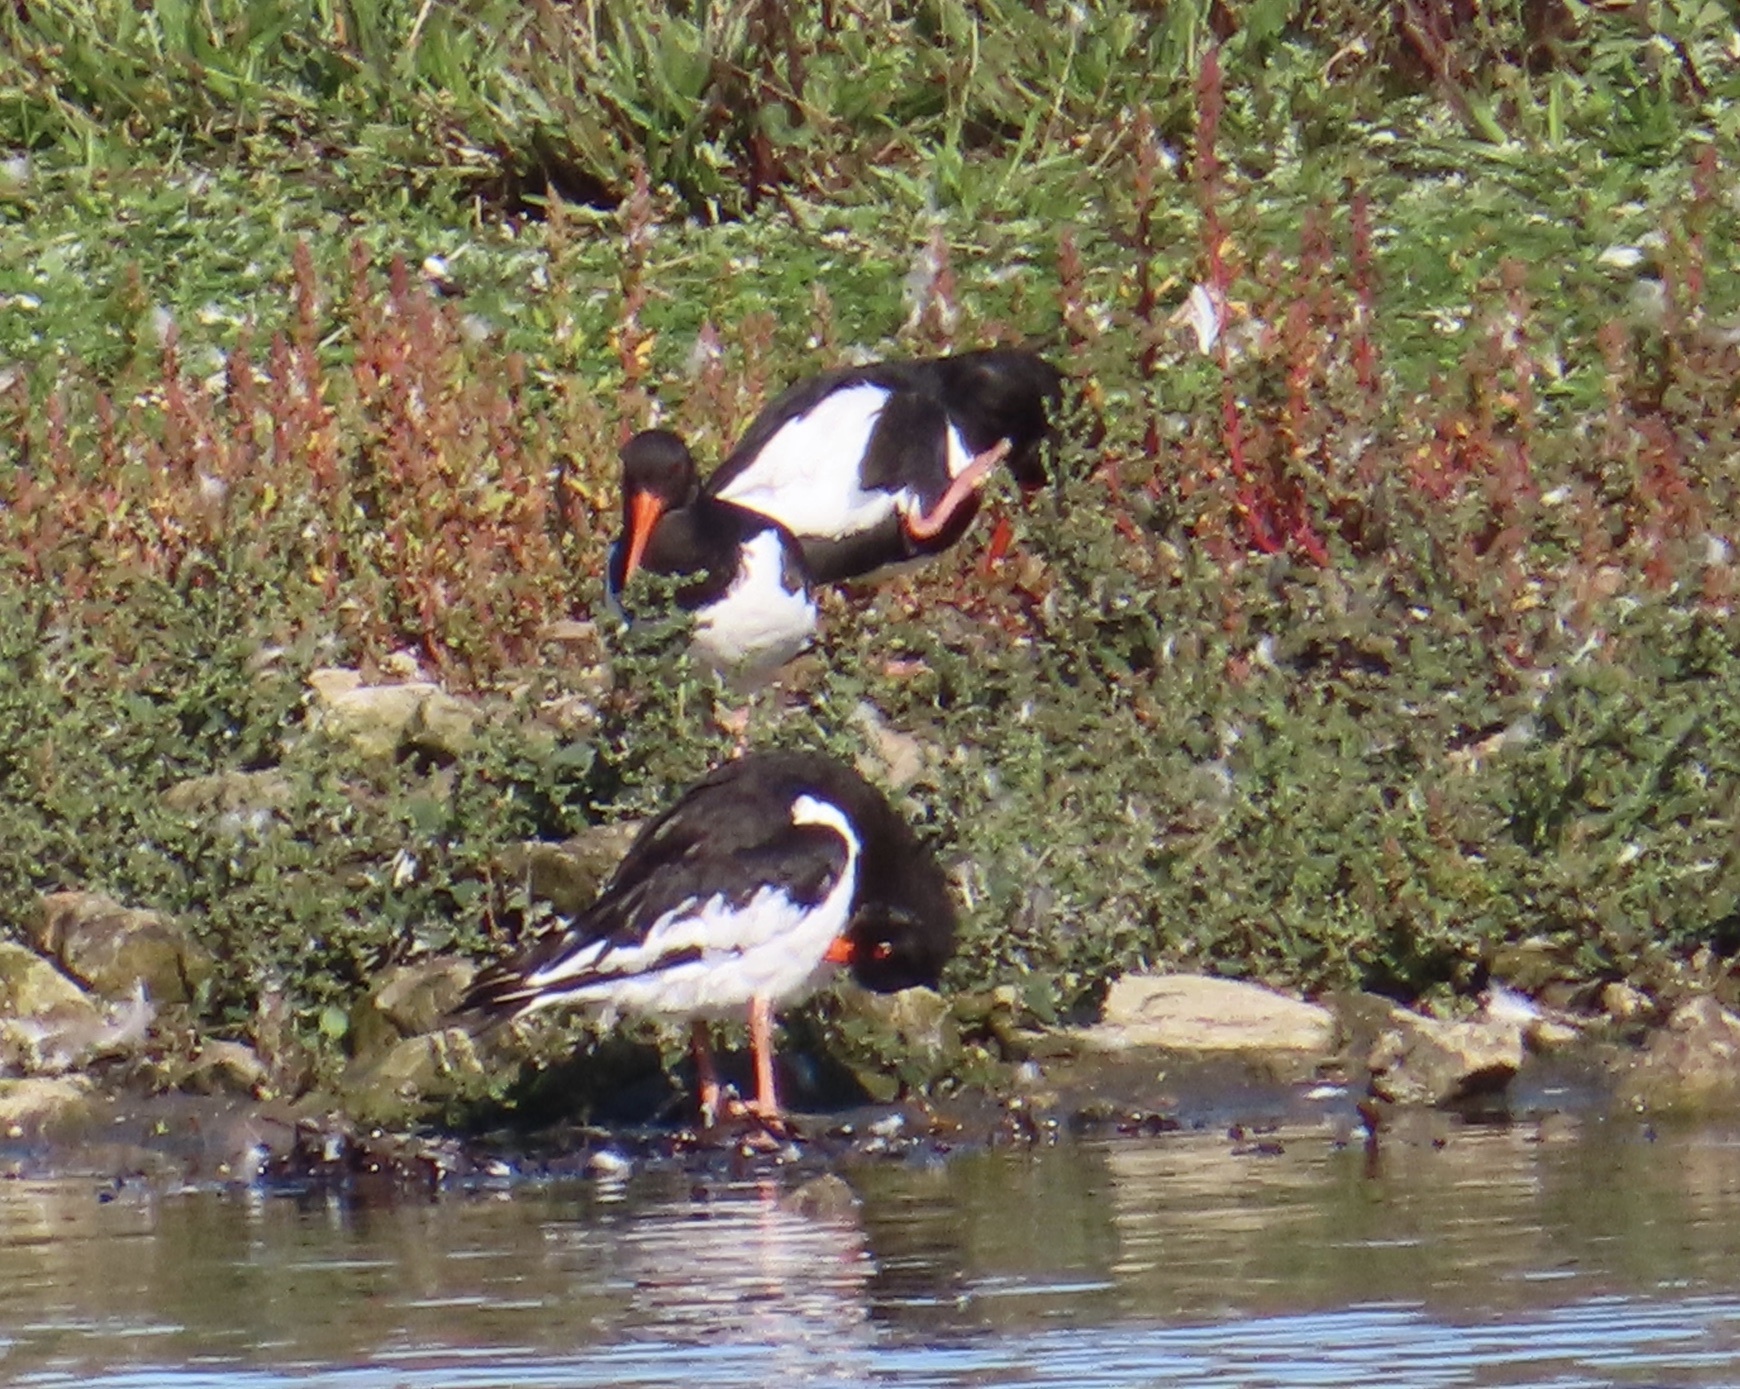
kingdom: Animalia
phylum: Chordata
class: Aves
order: Charadriiformes
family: Haematopodidae
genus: Haematopus
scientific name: Haematopus ostralegus
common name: Eurasian oystercatcher
